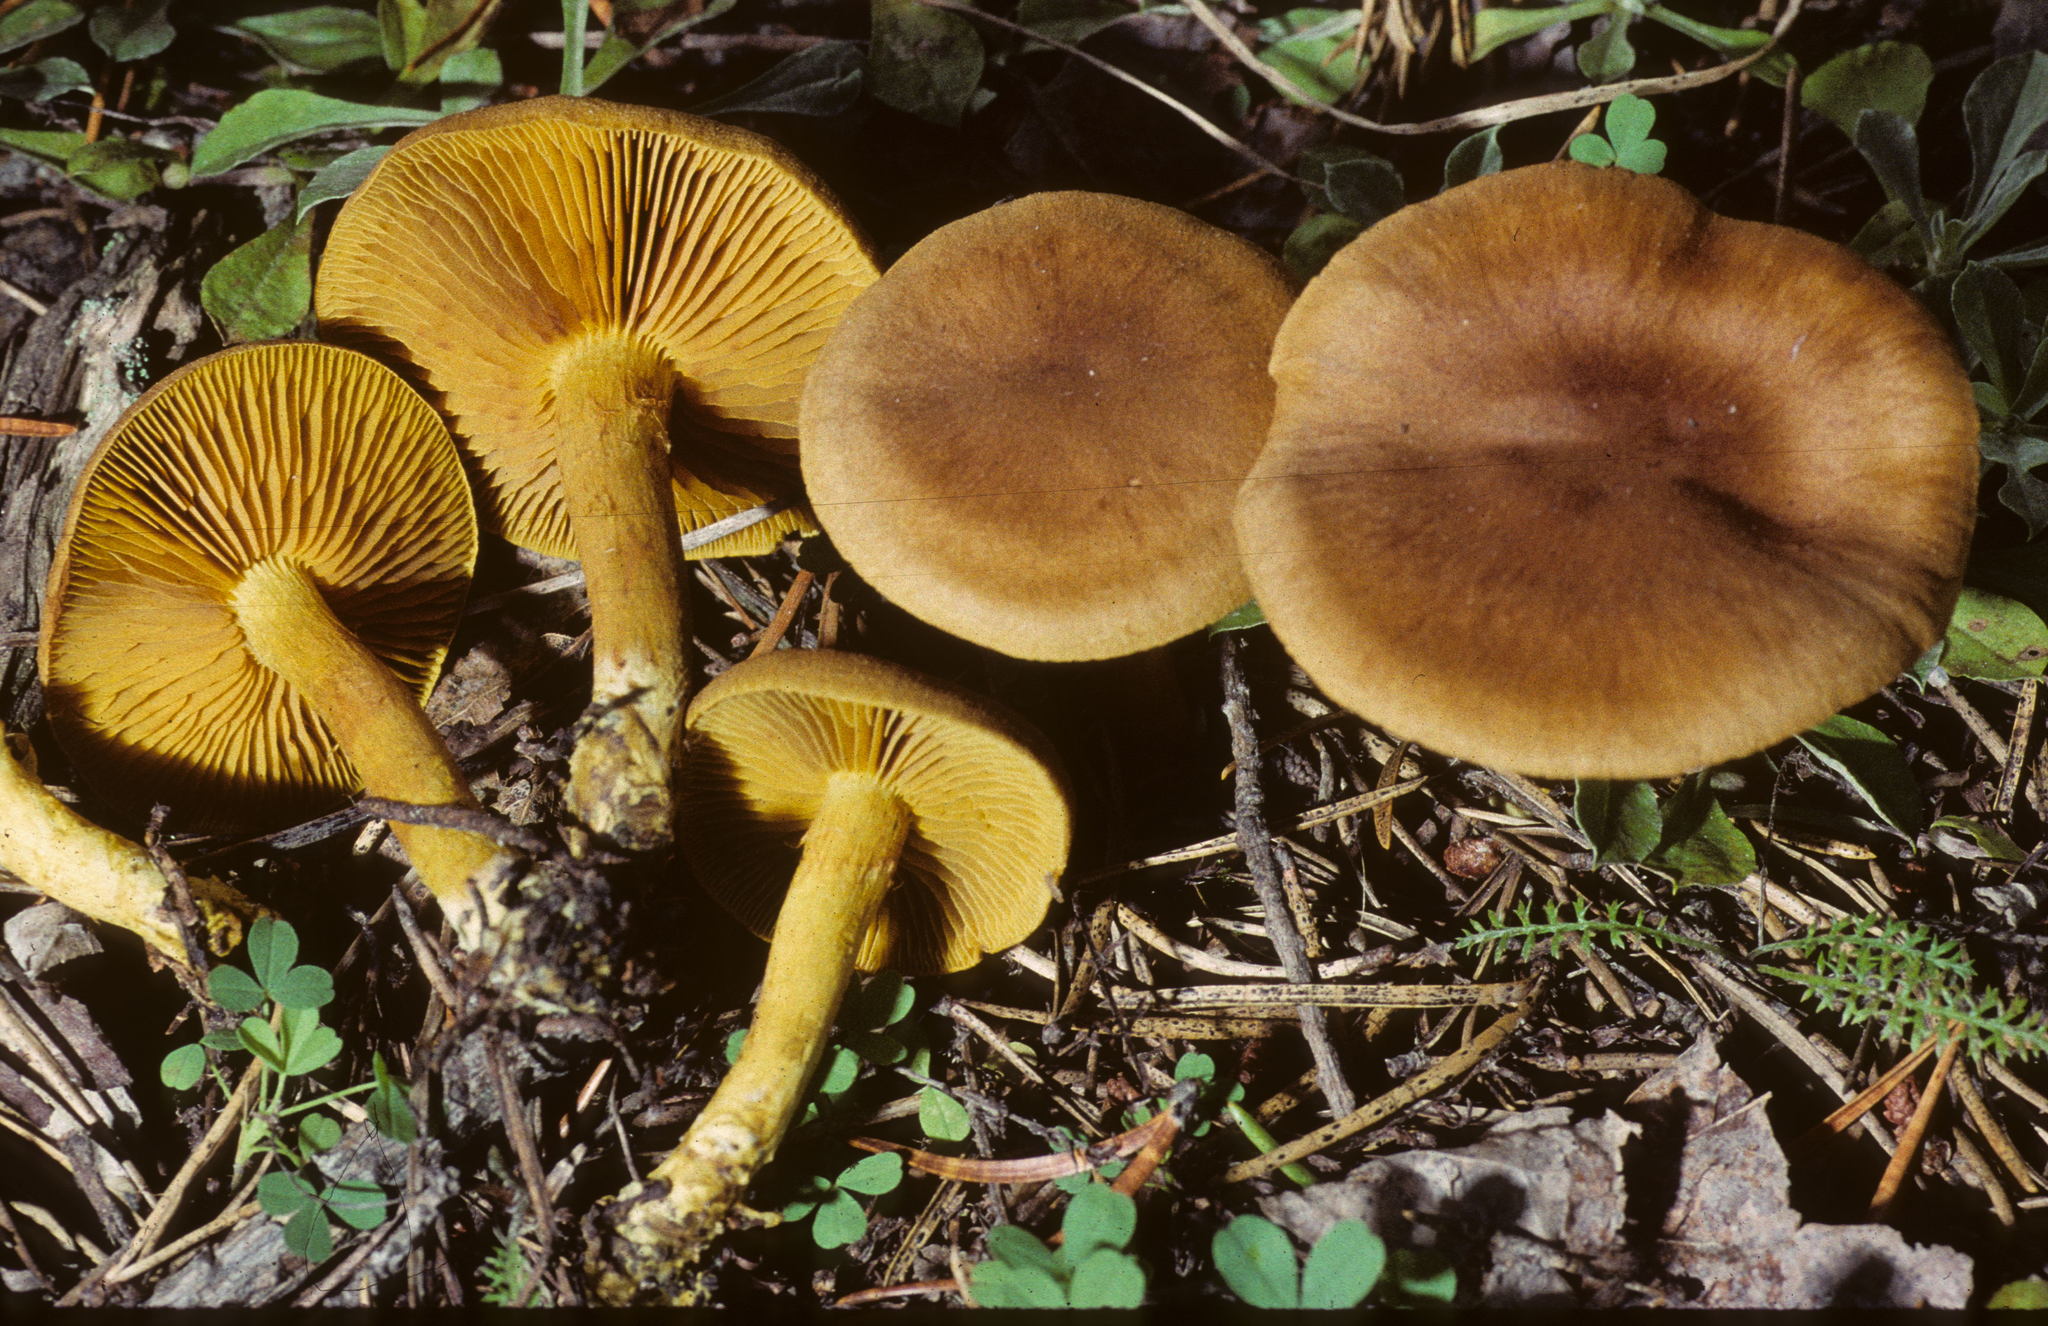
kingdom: Fungi
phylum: Basidiomycota
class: Agaricomycetes
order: Agaricales
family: Cortinariaceae
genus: Cortinarius
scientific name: Cortinarius incognitus
